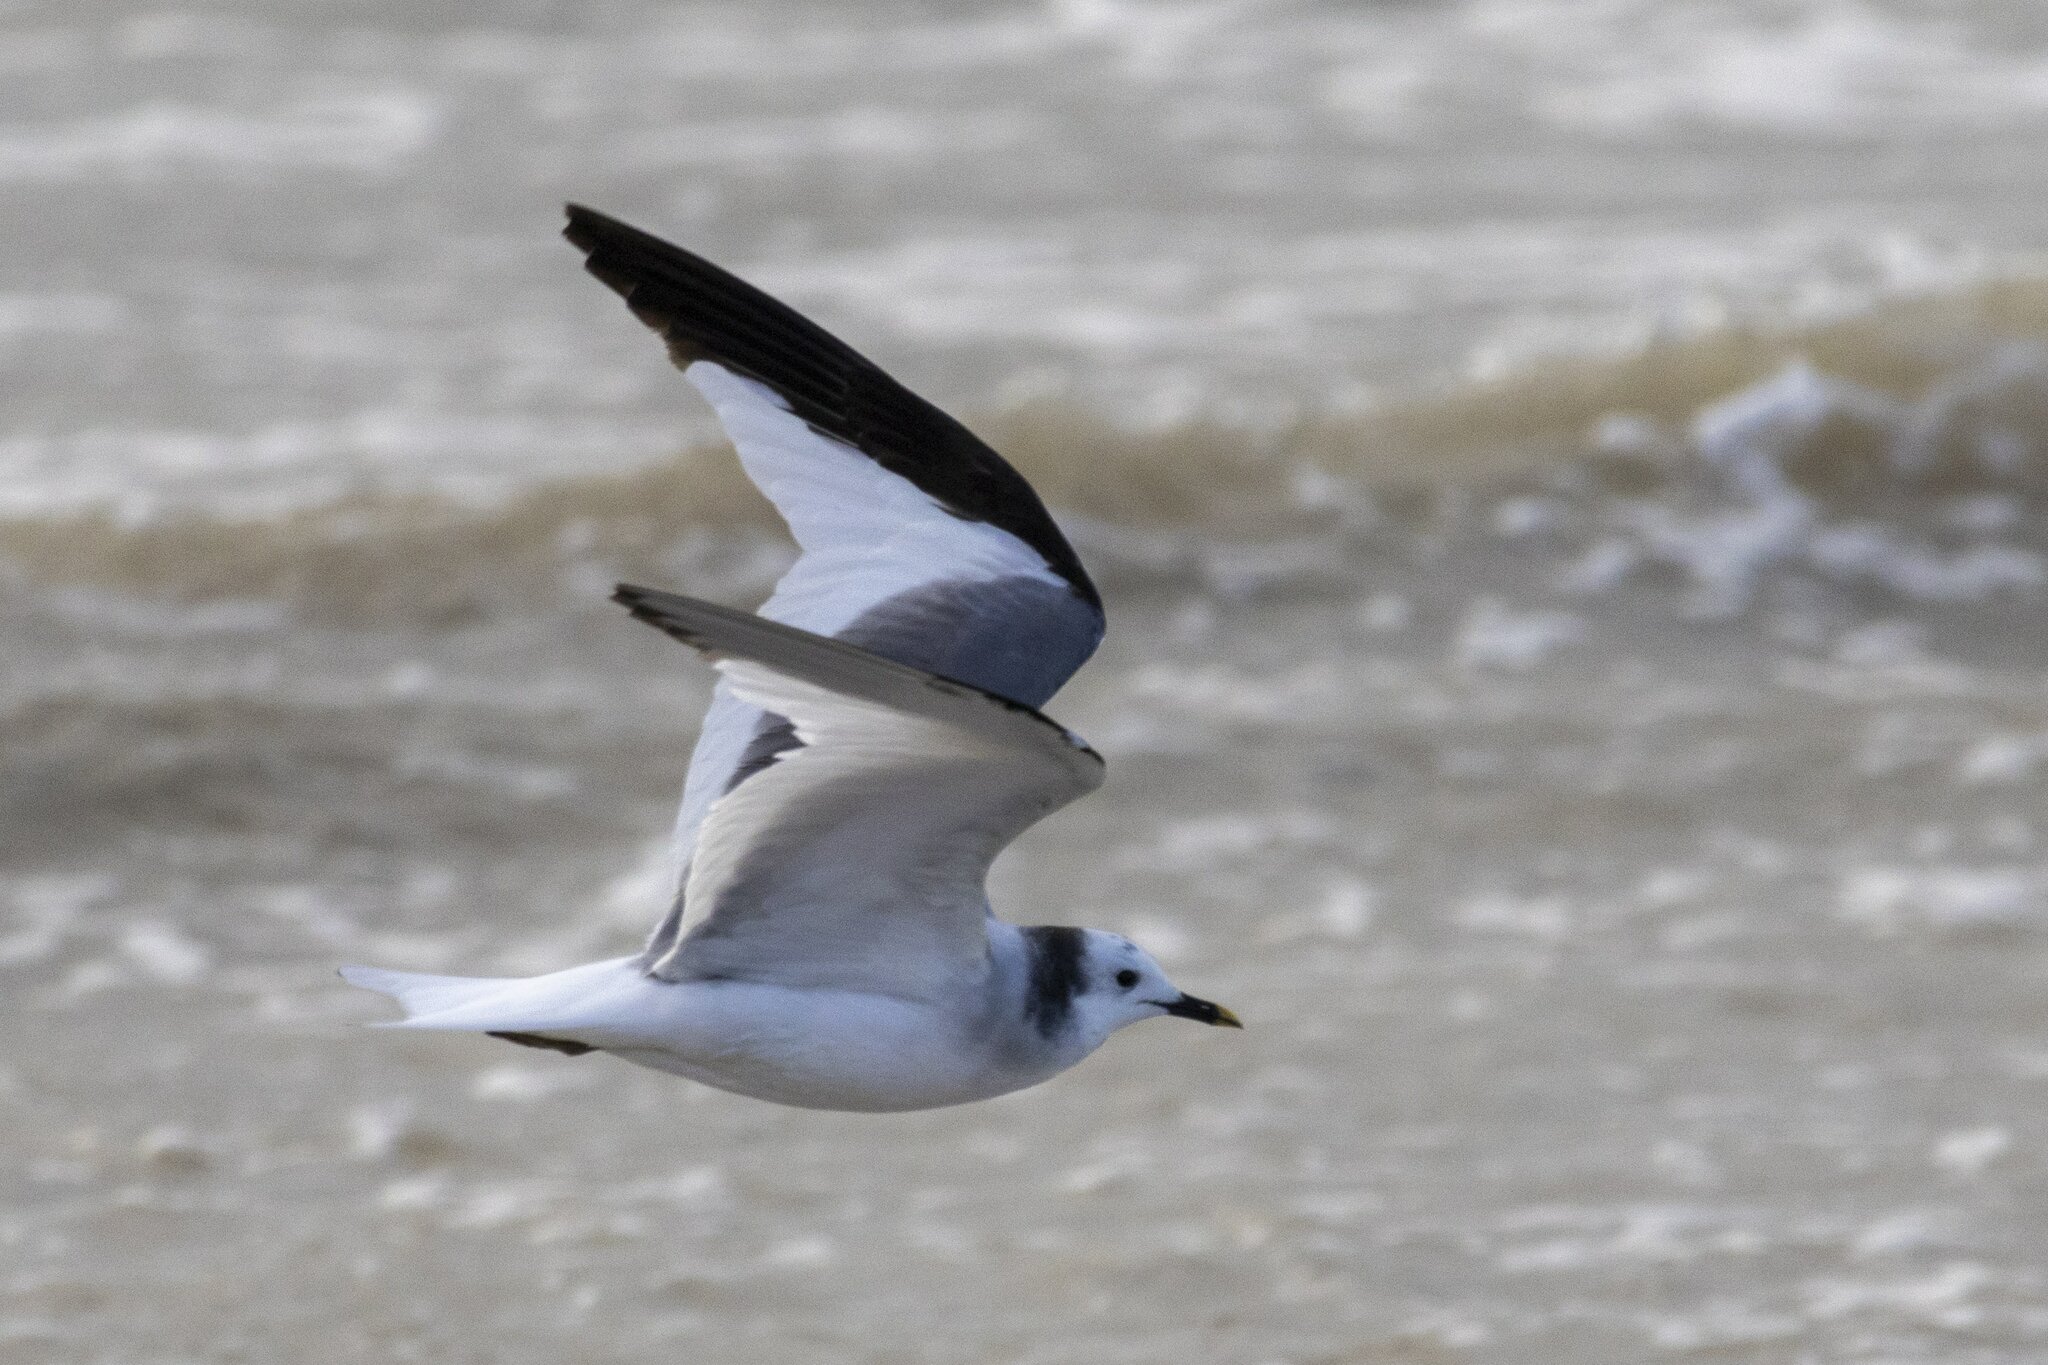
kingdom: Animalia
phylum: Chordata
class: Aves
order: Charadriiformes
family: Laridae
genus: Xema
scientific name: Xema sabini
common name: Sabine's gull
